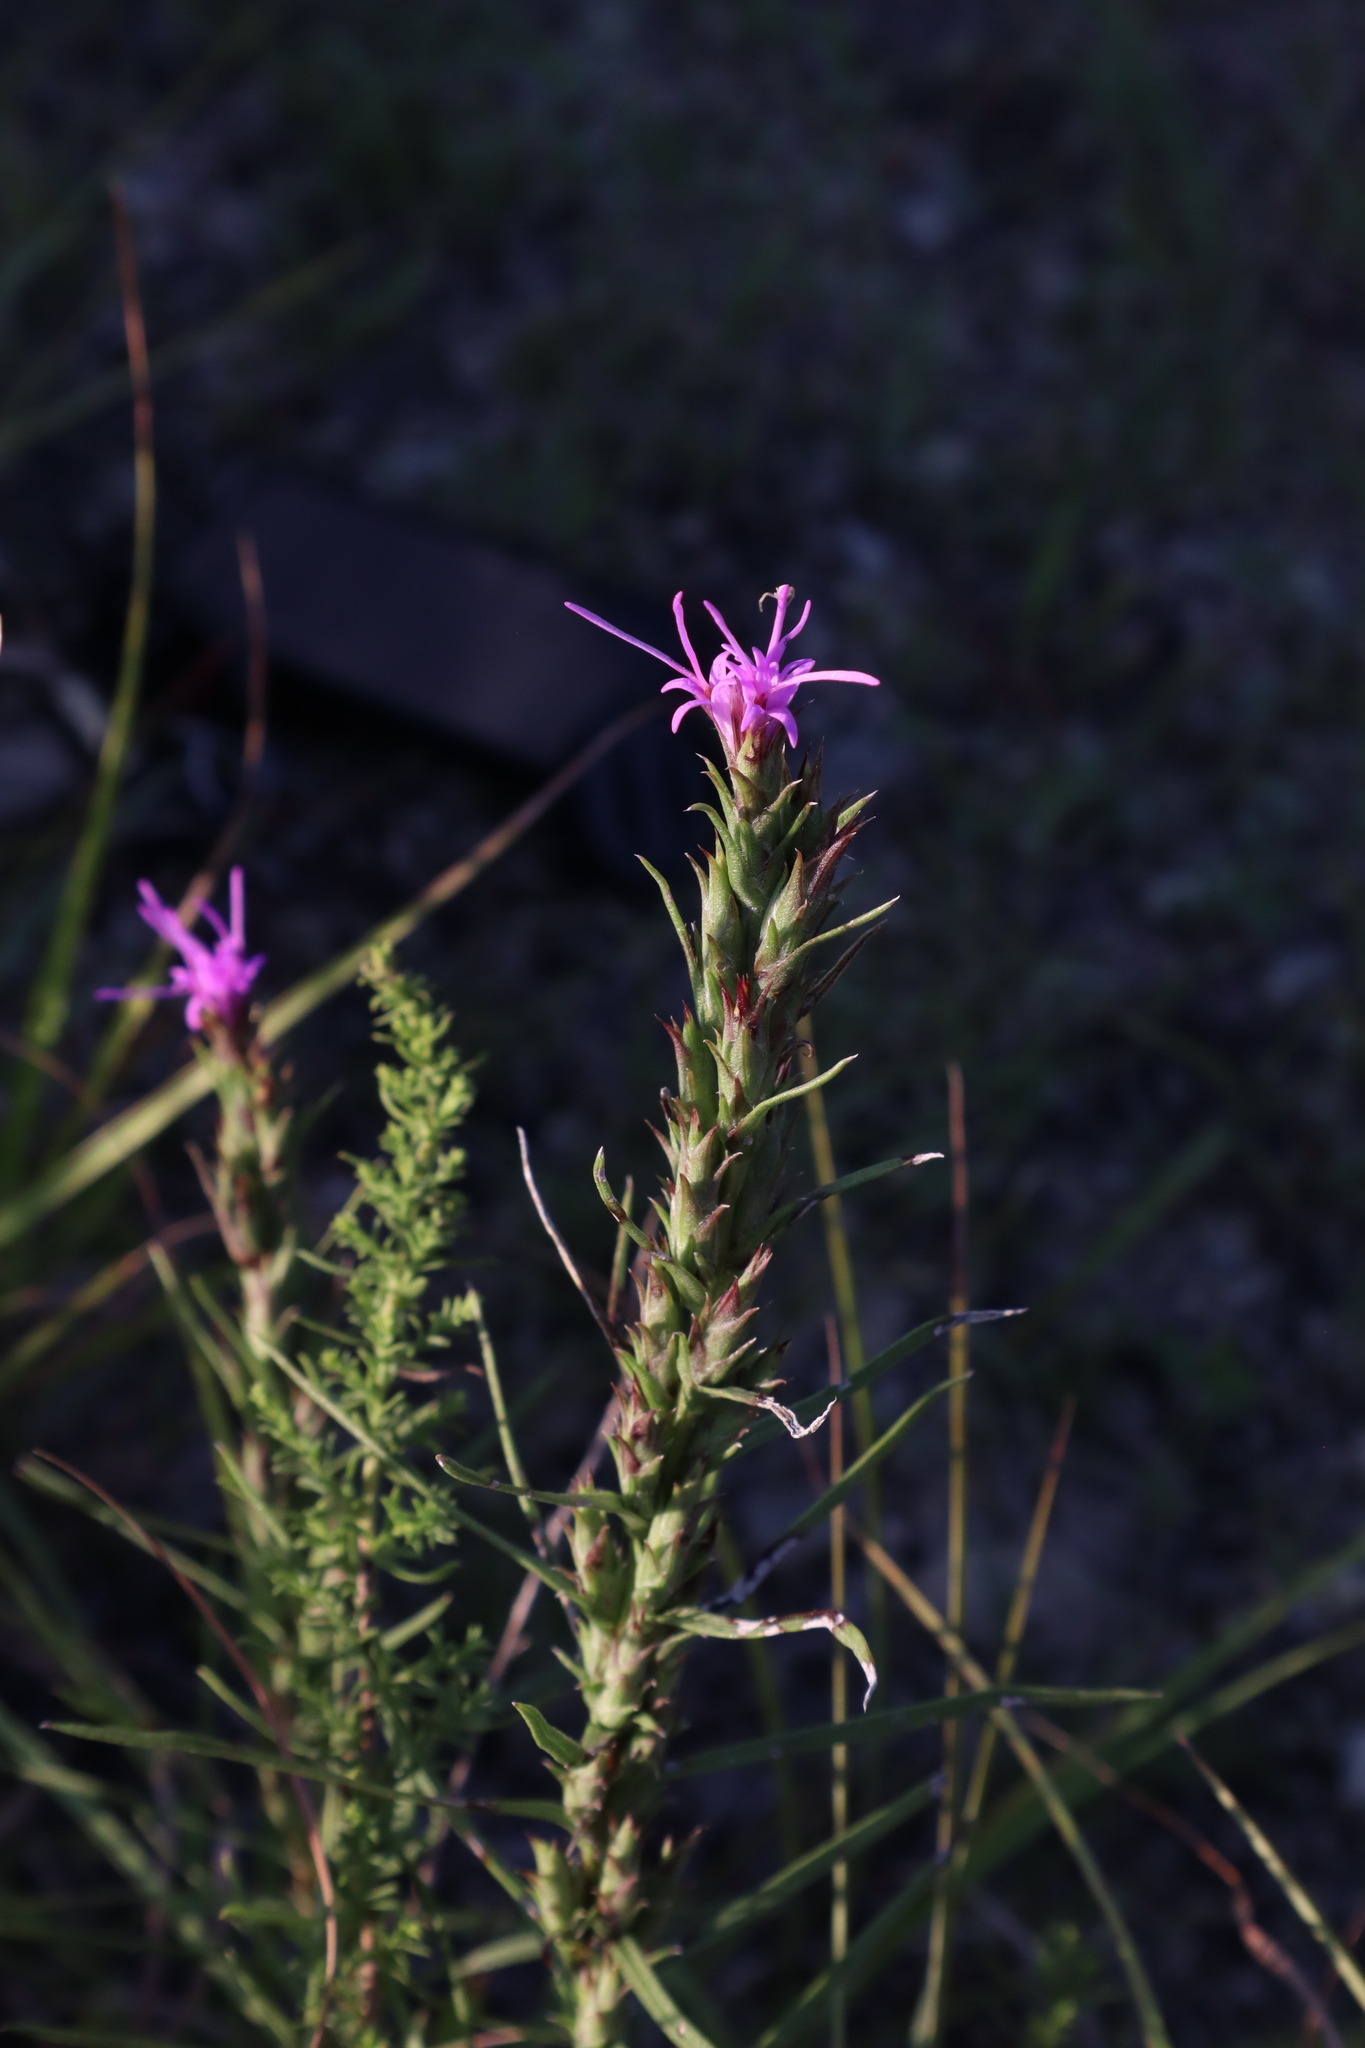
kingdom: Plantae
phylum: Tracheophyta
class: Magnoliopsida
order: Asterales
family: Asteraceae
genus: Liatris
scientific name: Liatris punctata
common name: Dotted gayfeather
